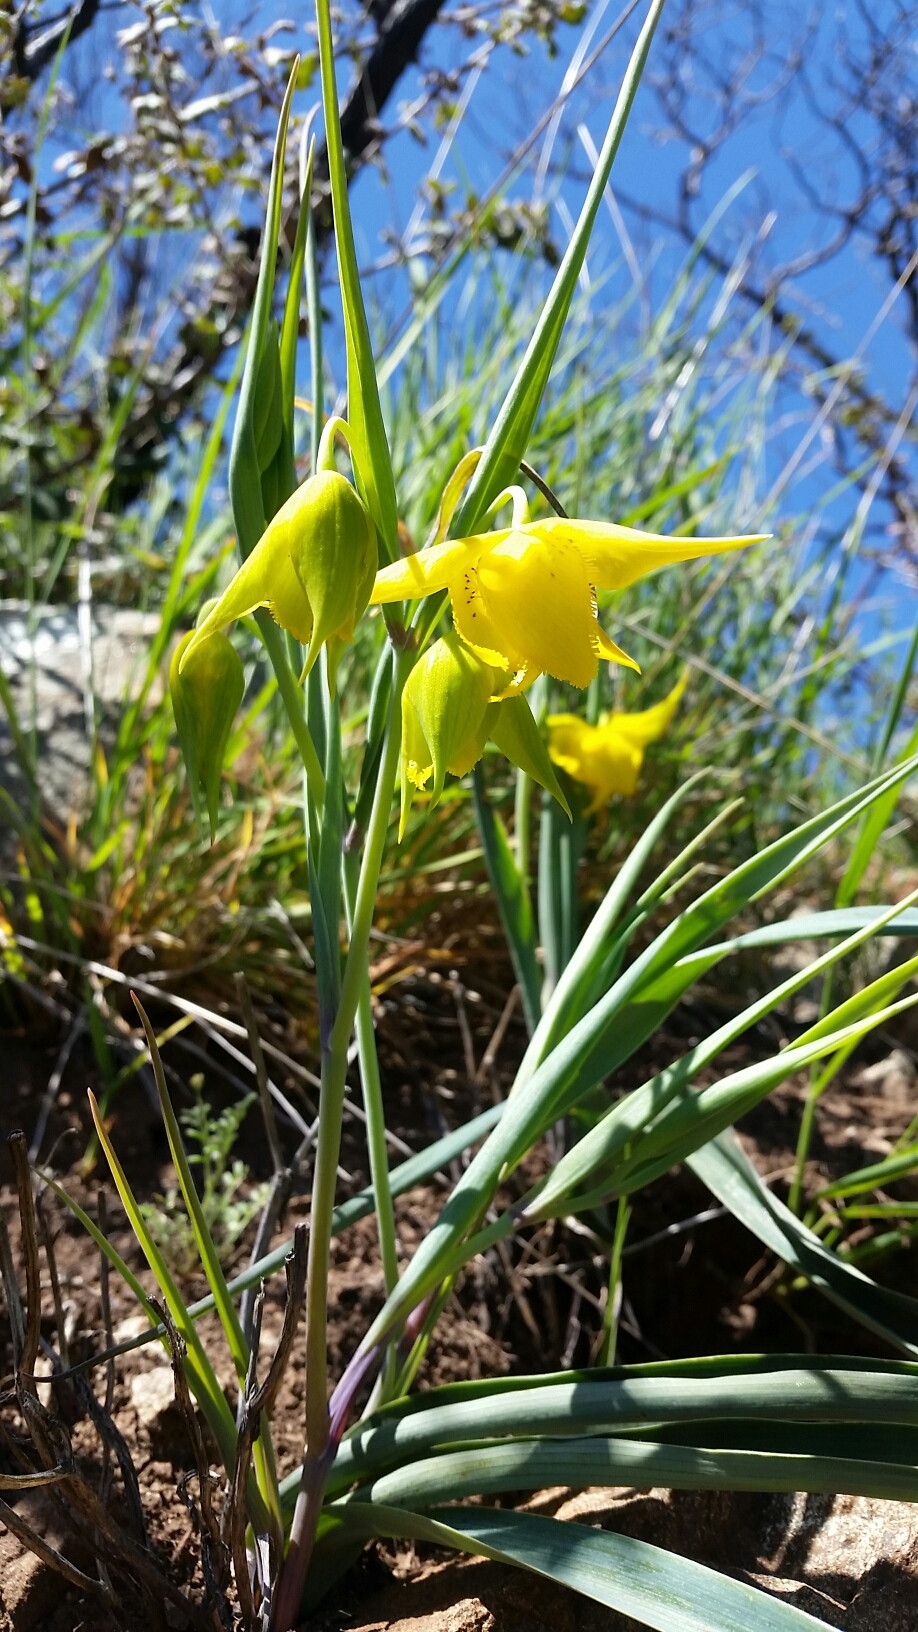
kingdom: Plantae
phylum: Tracheophyta
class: Liliopsida
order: Liliales
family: Liliaceae
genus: Calochortus
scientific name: Calochortus amabilis
